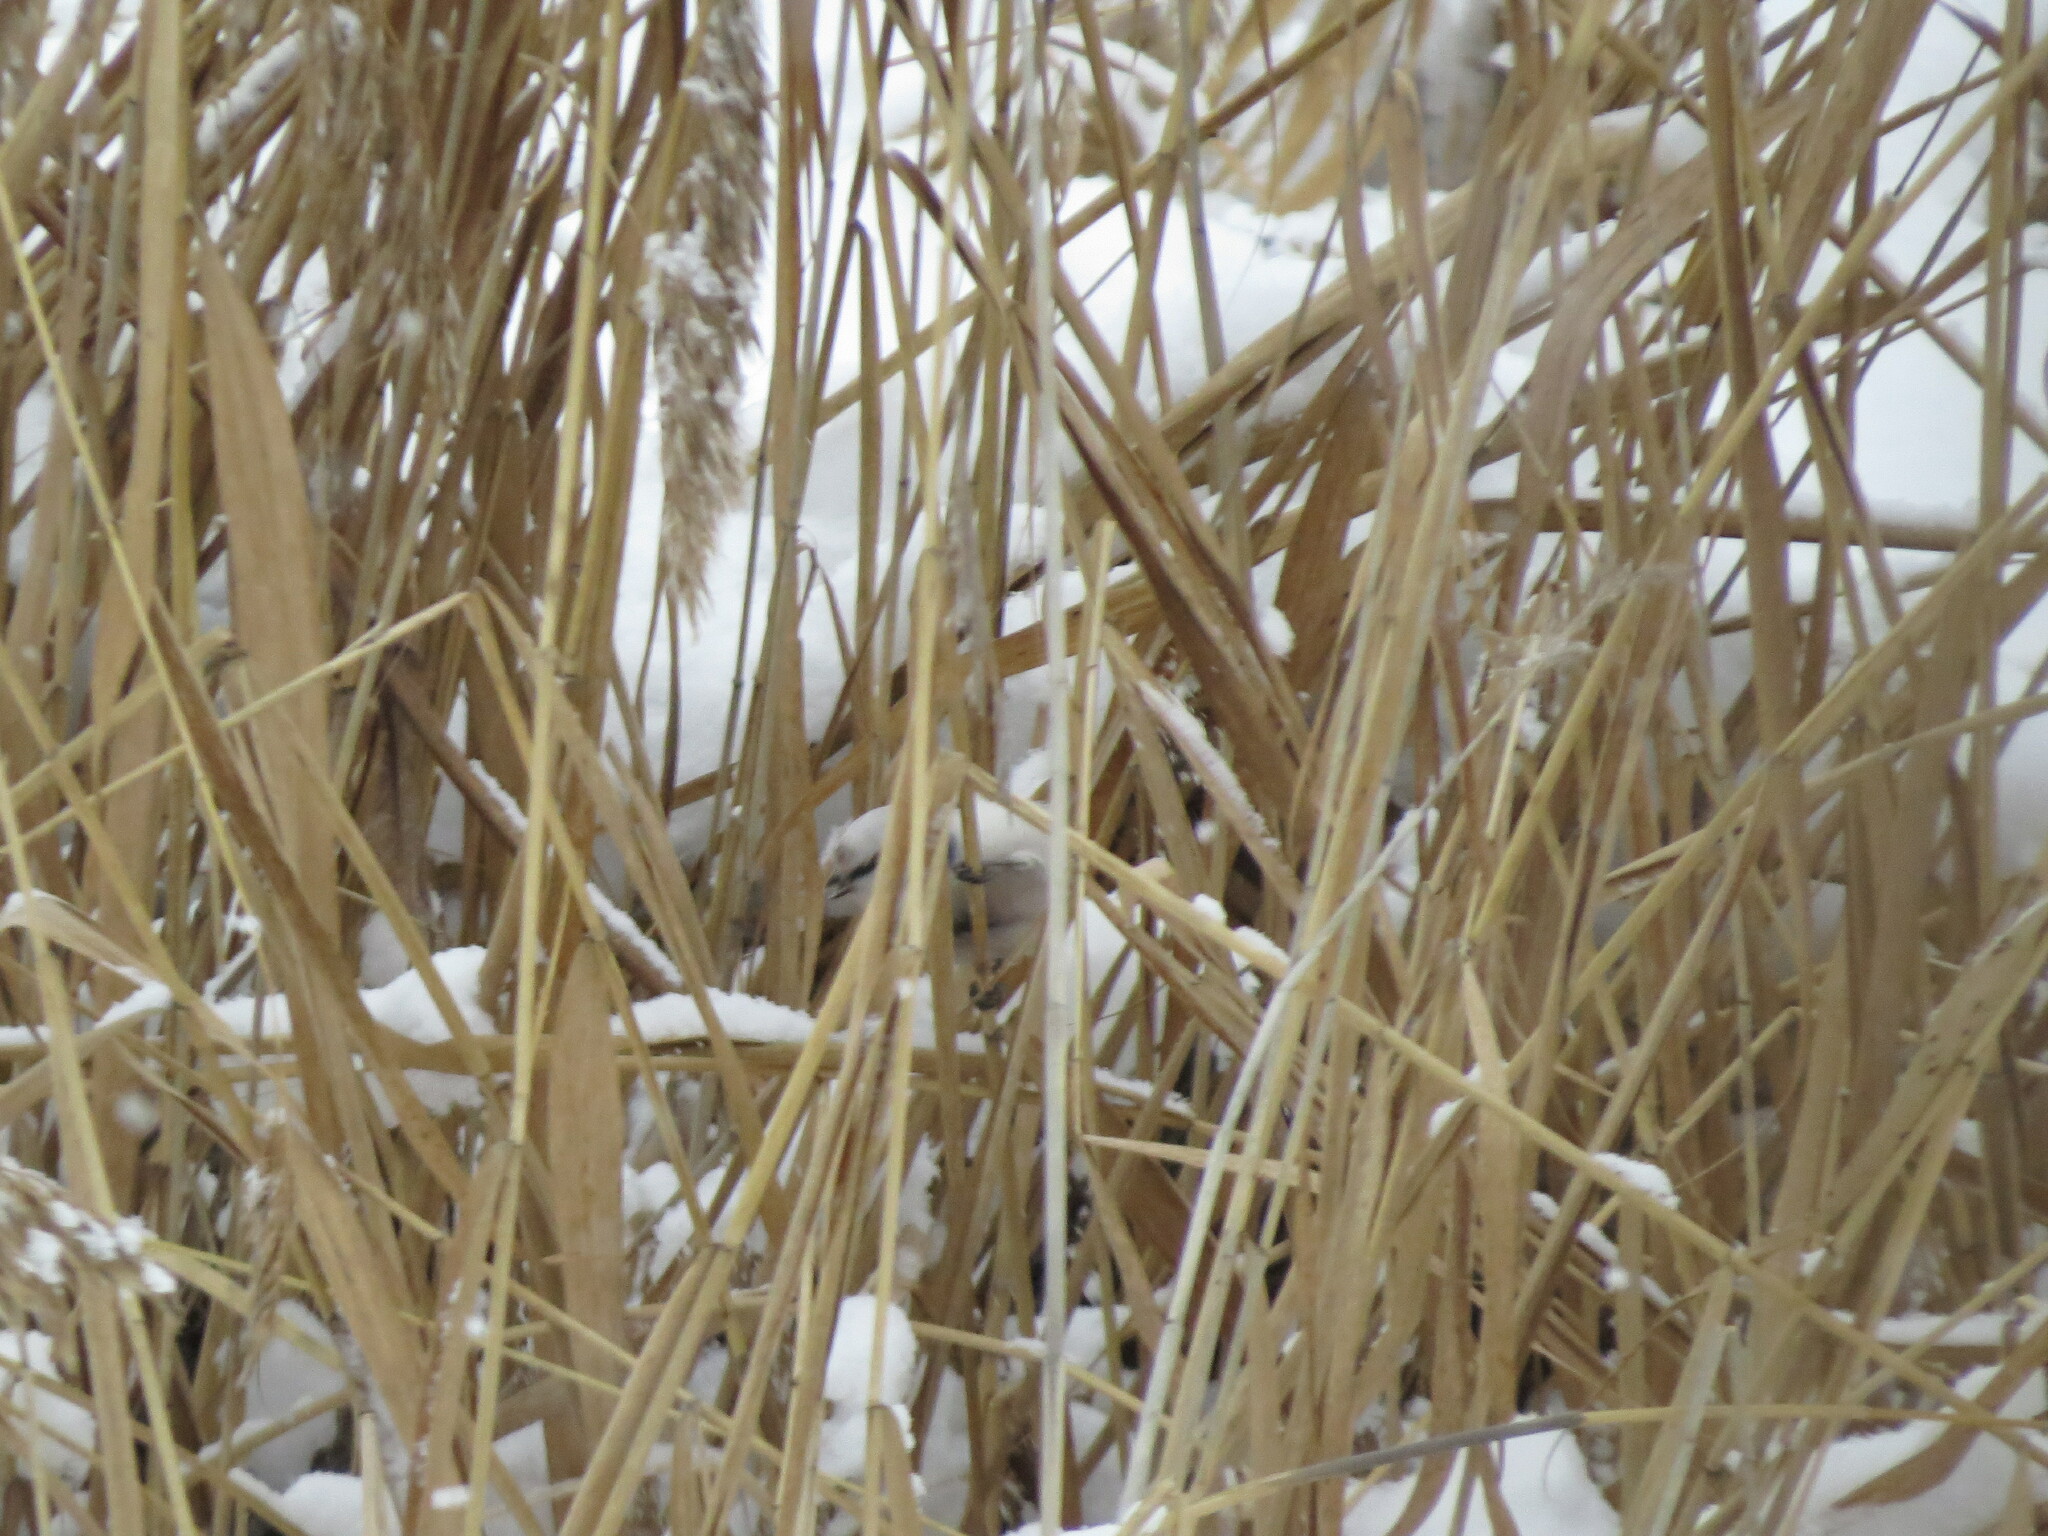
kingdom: Animalia
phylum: Chordata
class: Aves
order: Passeriformes
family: Paridae
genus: Cyanistes
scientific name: Cyanistes cyanus
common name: Azure tit
